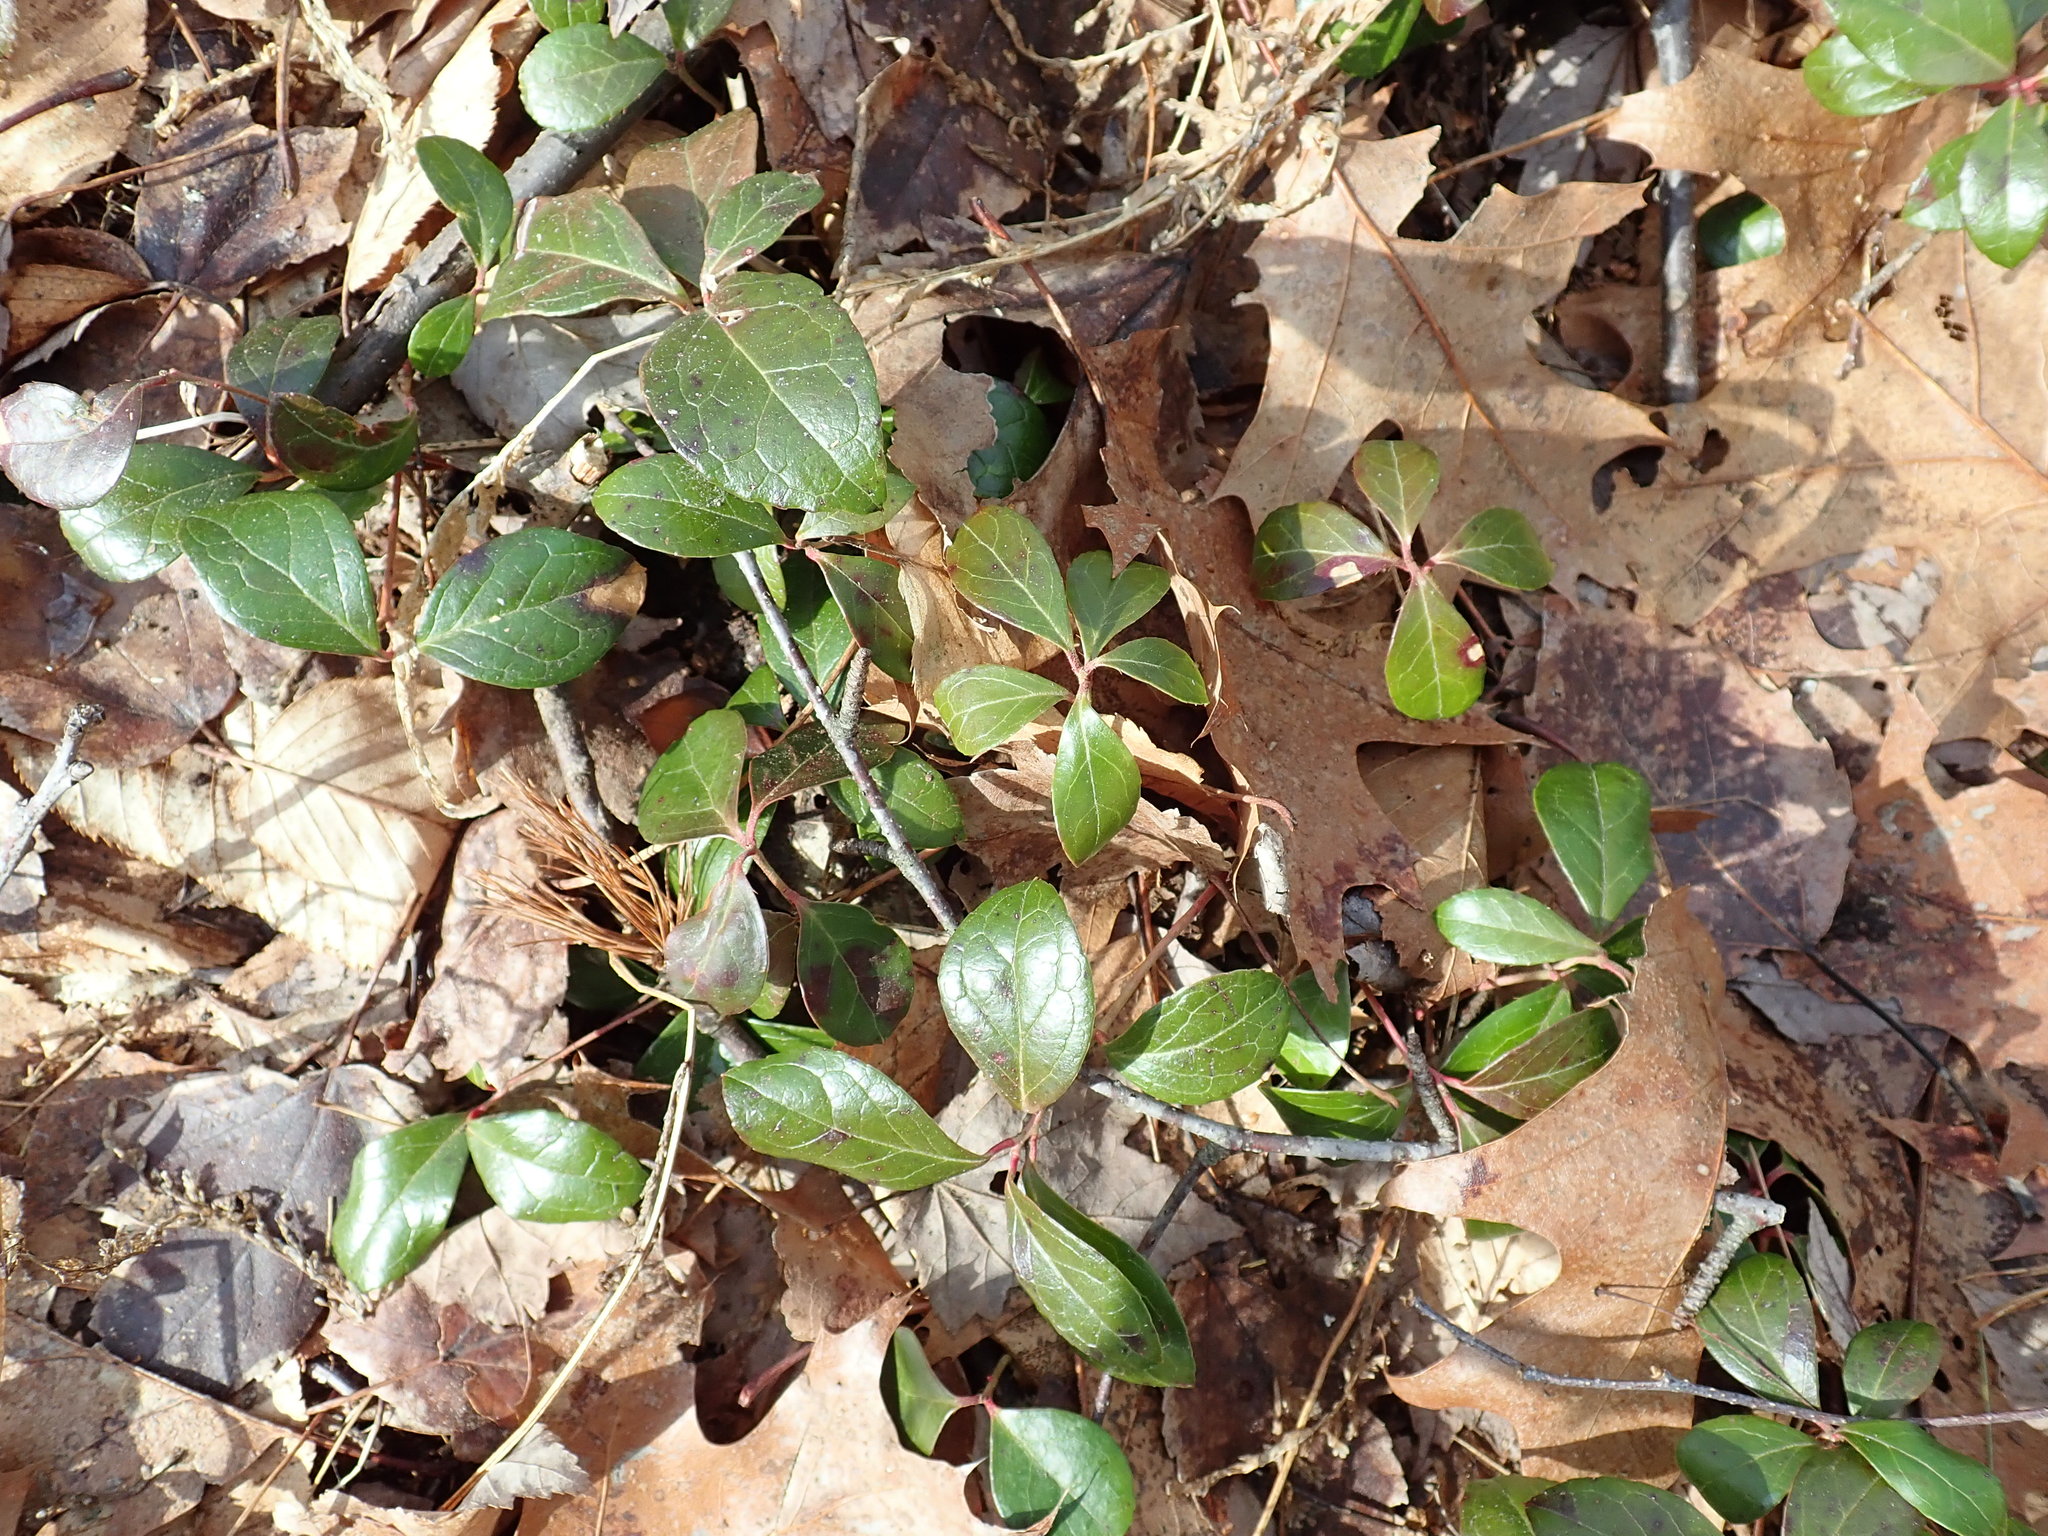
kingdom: Plantae
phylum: Tracheophyta
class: Magnoliopsida
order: Ericales
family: Ericaceae
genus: Gaultheria
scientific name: Gaultheria procumbens
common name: Checkerberry
